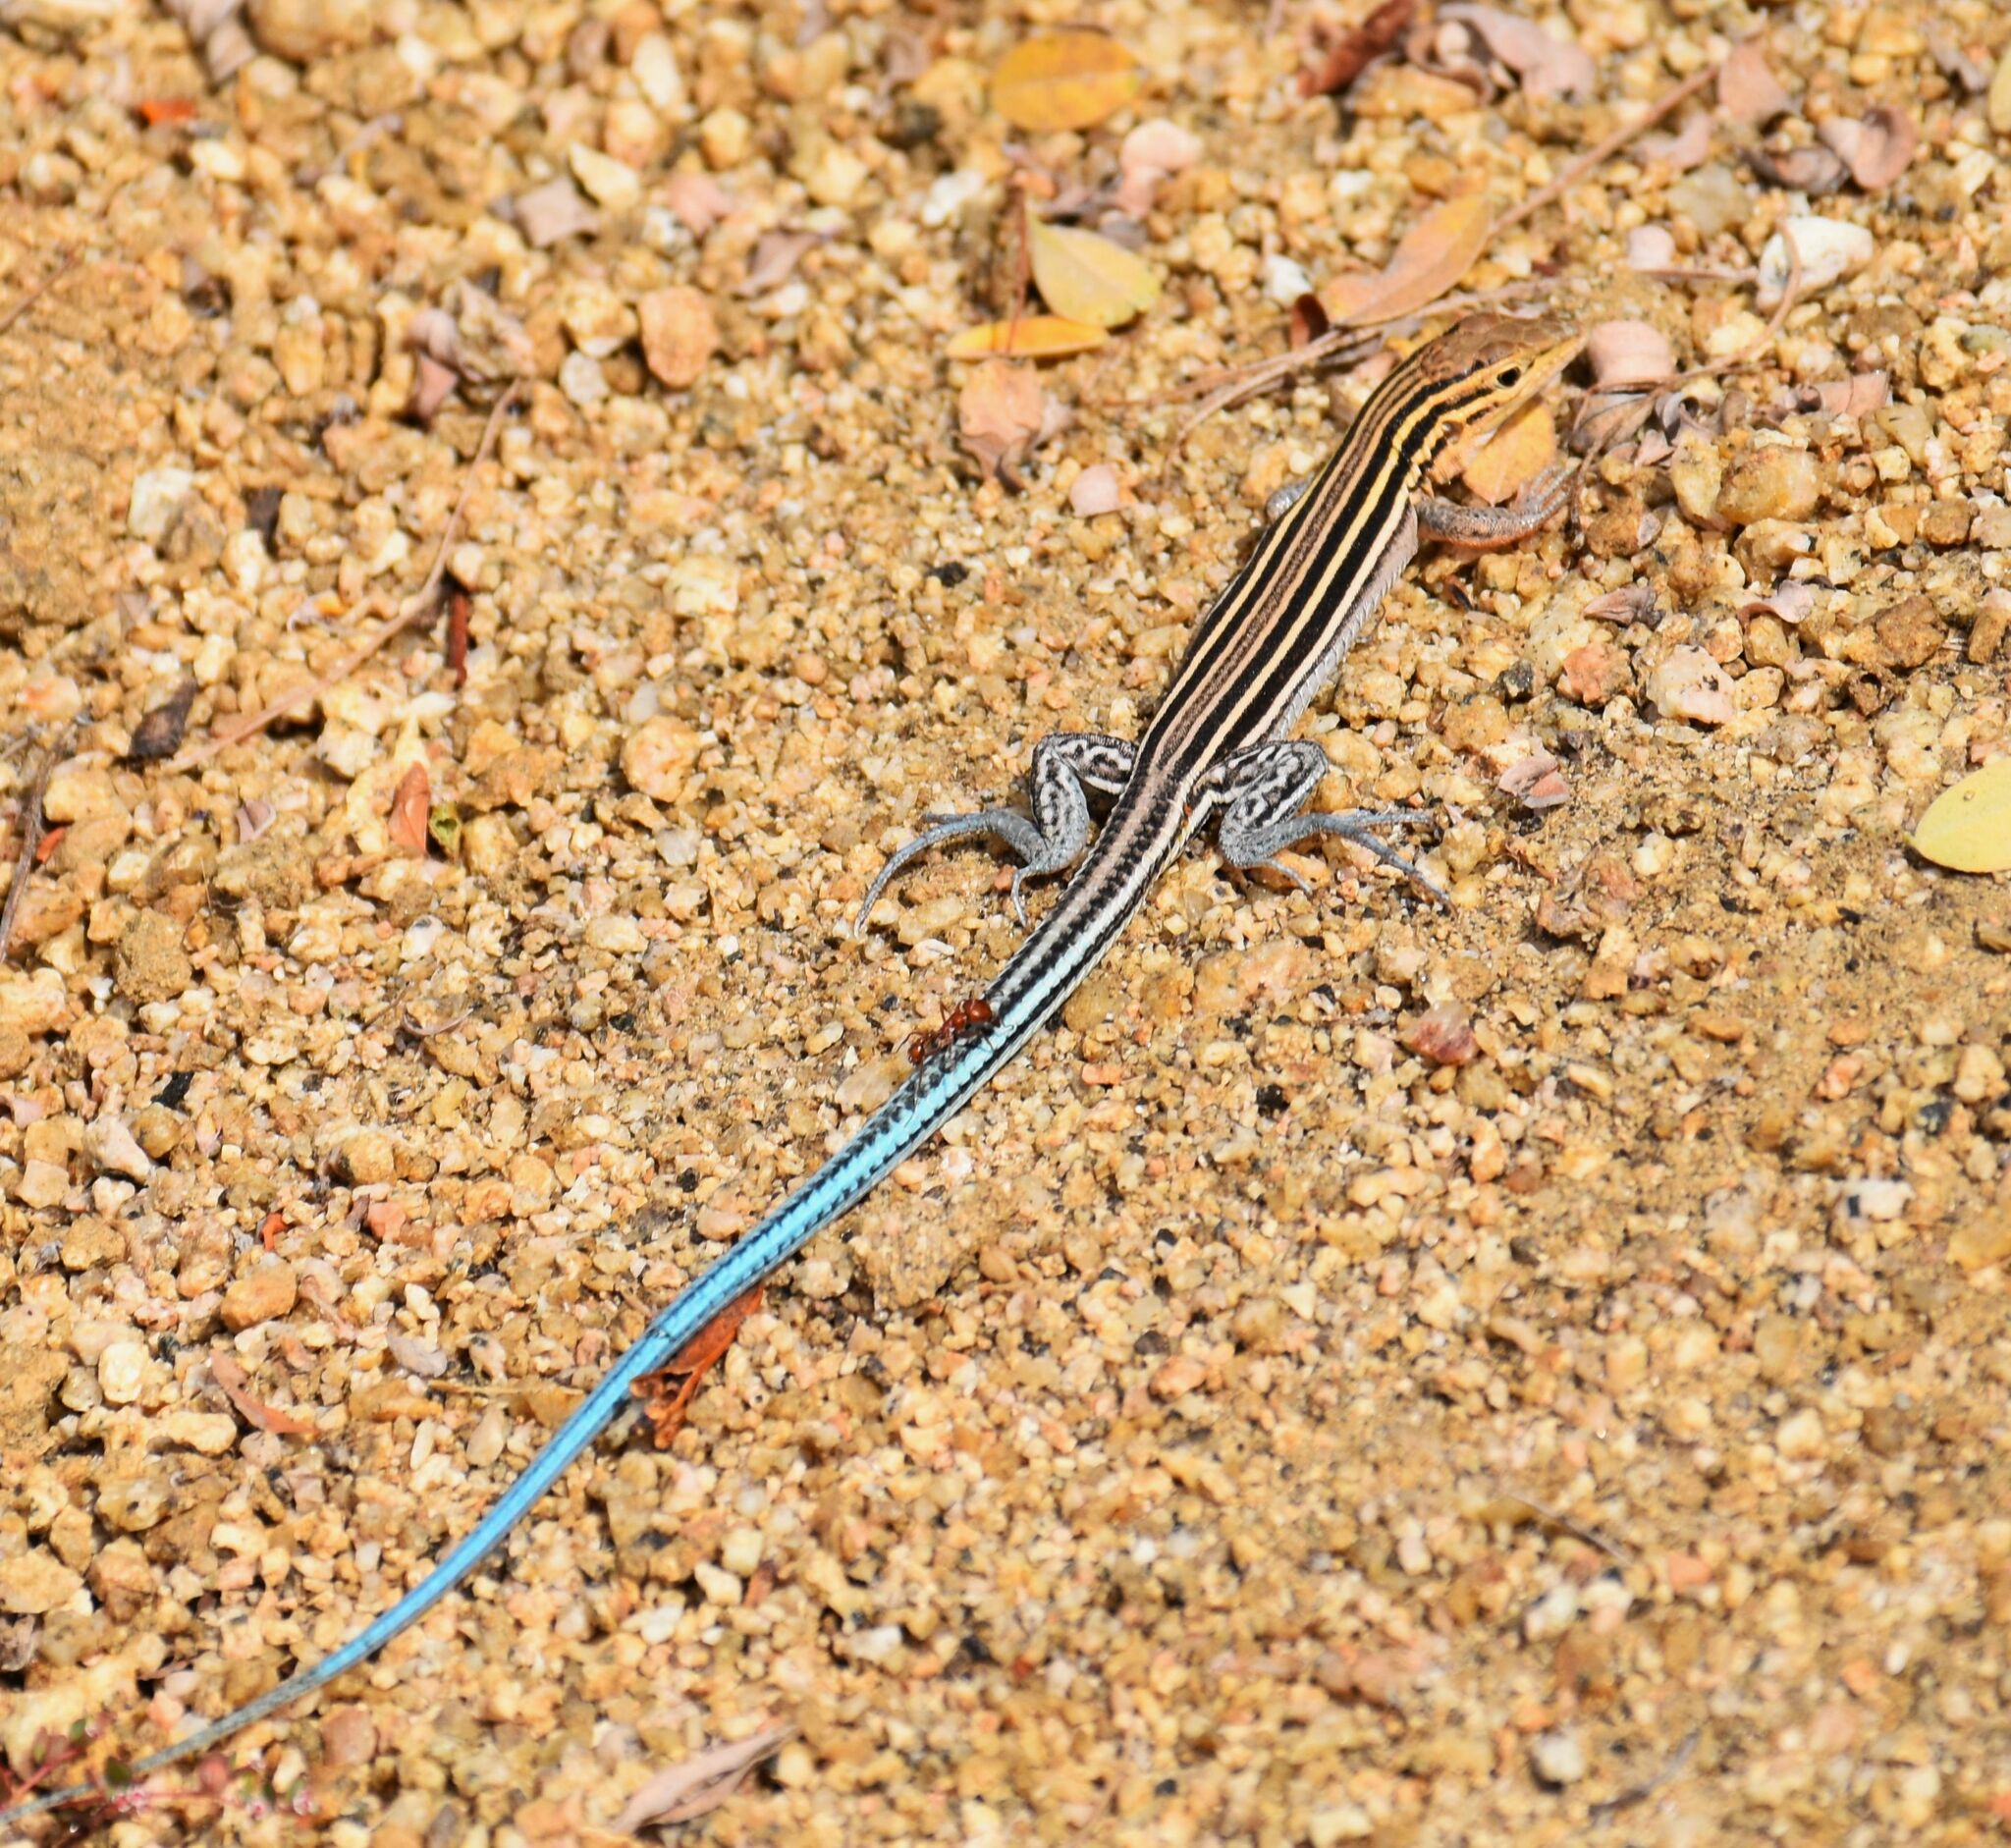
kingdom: Animalia
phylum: Chordata
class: Squamata
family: Teiidae
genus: Aspidoscelis
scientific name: Aspidoscelis hyperythrus
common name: Orange-throated race-runner
